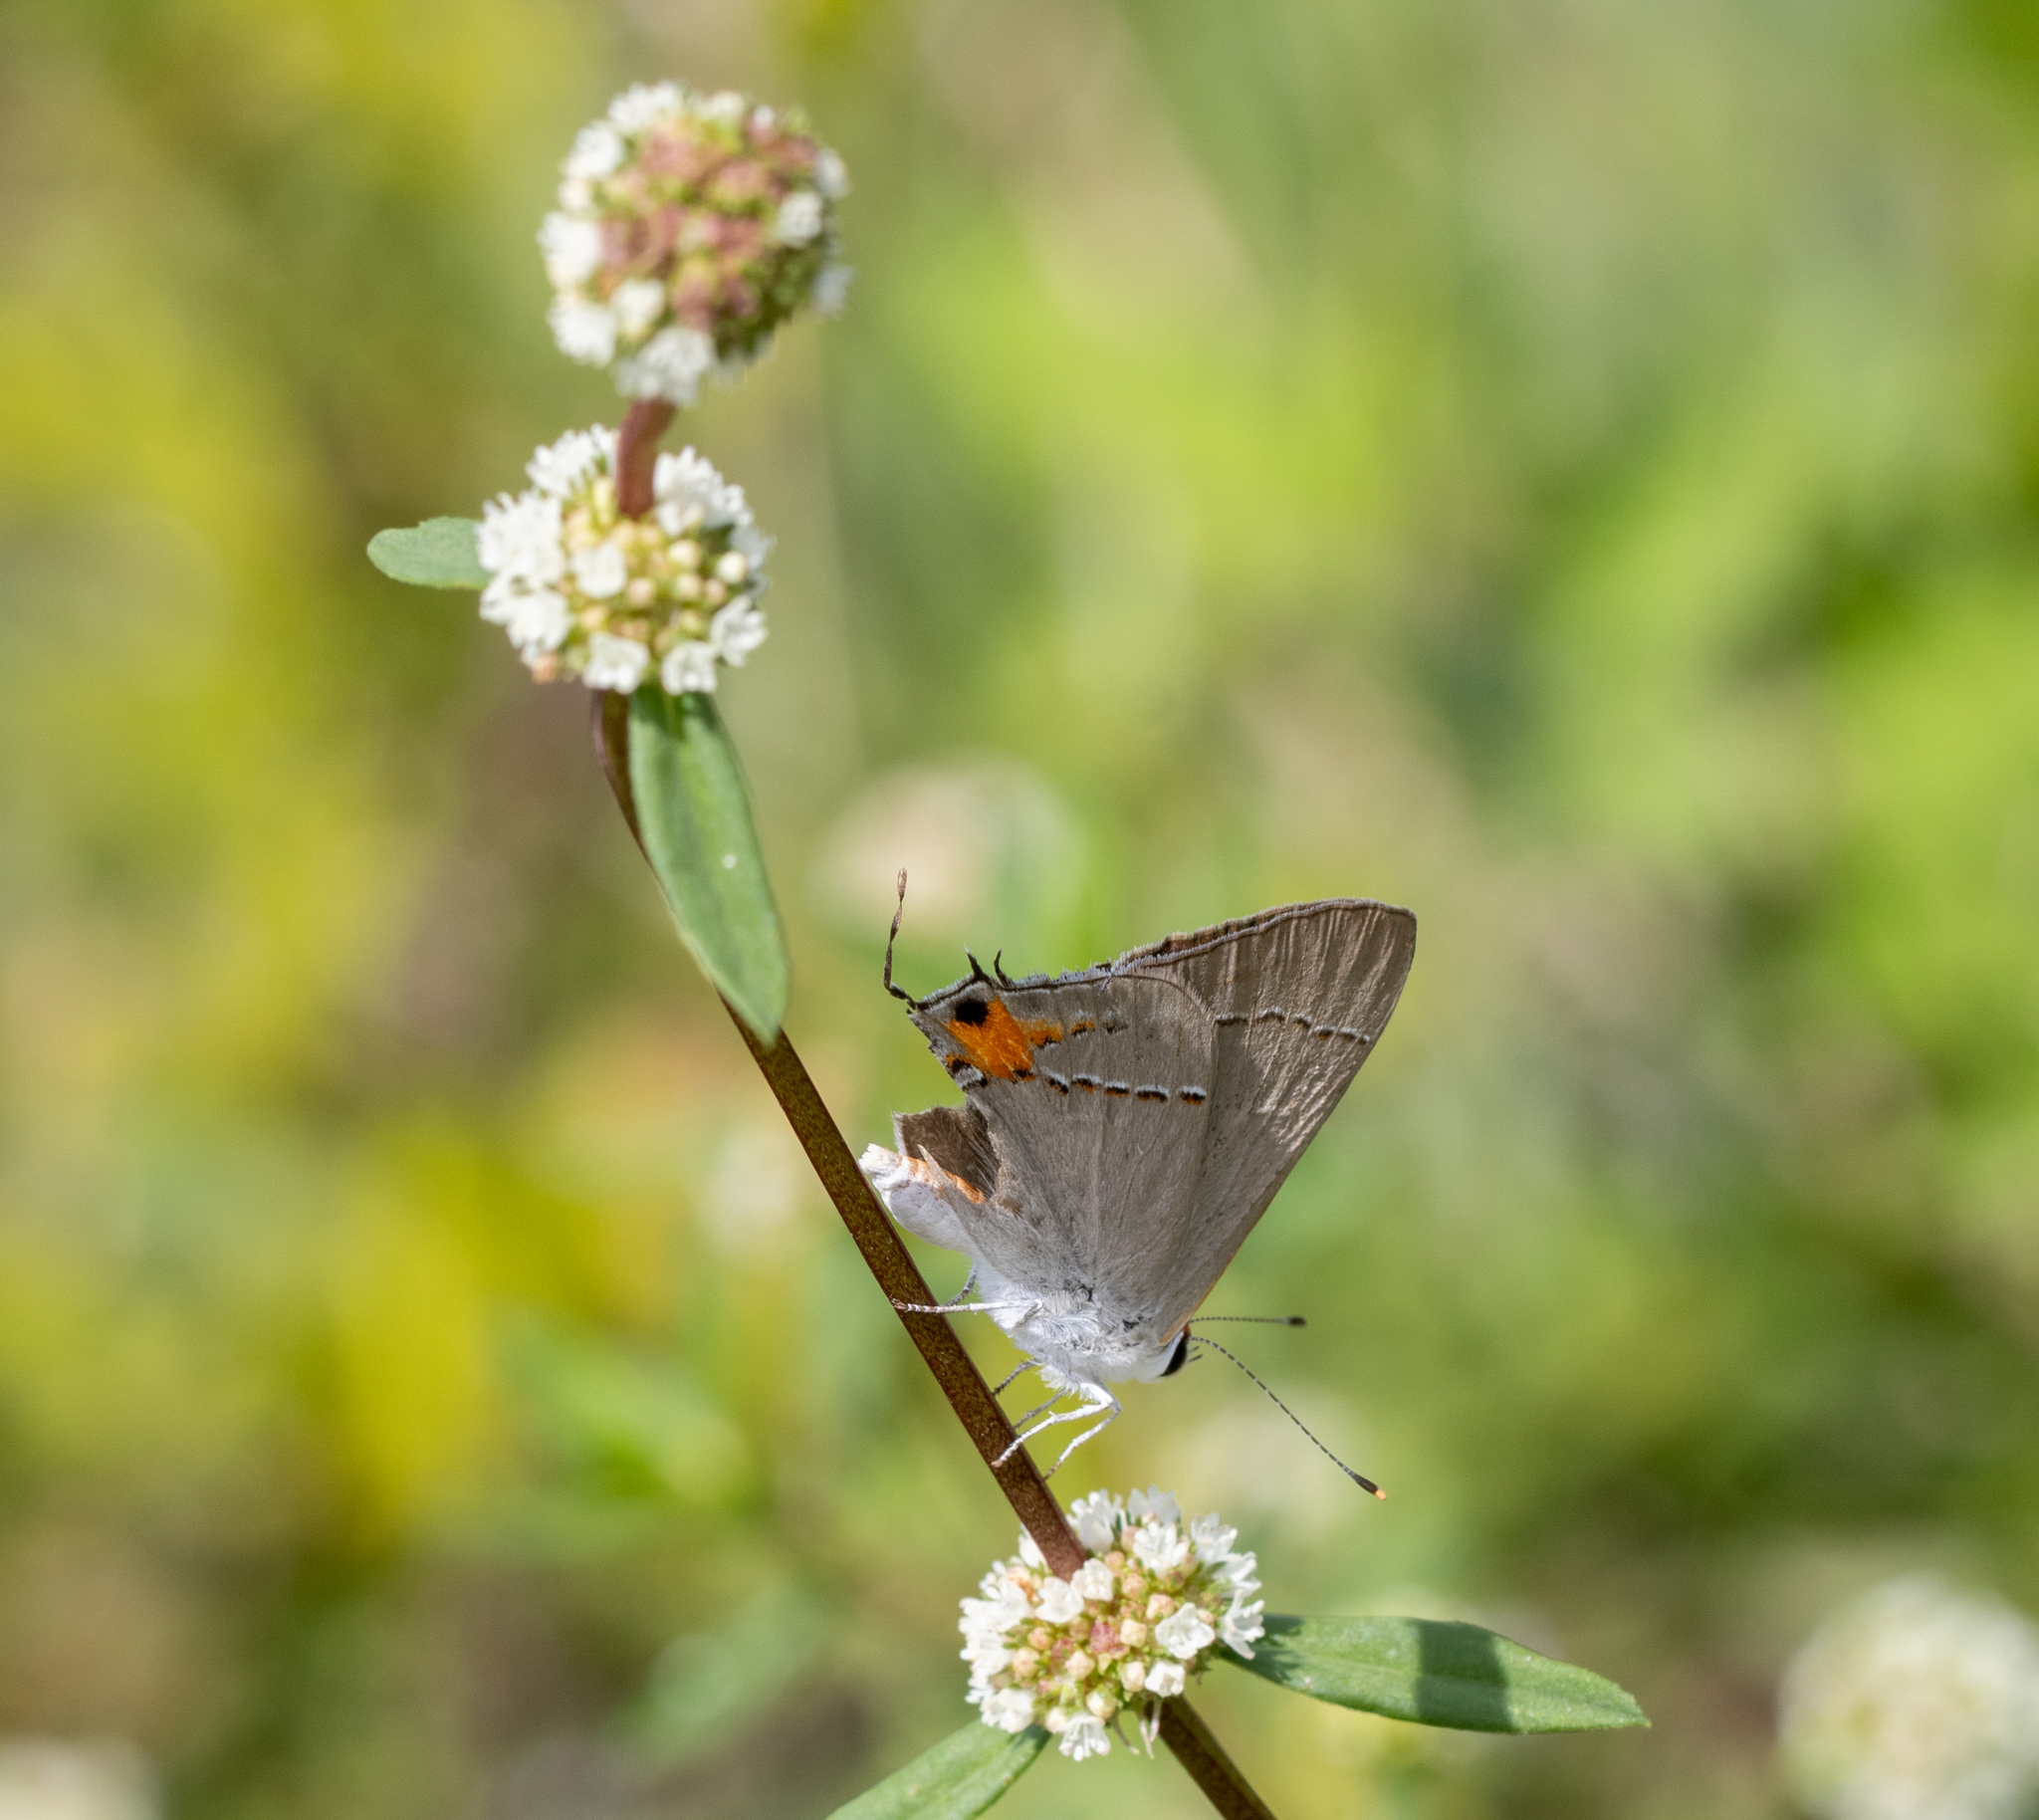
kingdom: Animalia
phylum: Arthropoda
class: Insecta
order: Lepidoptera
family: Lycaenidae
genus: Strymon
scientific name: Strymon melinus
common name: Gray hairstreak
